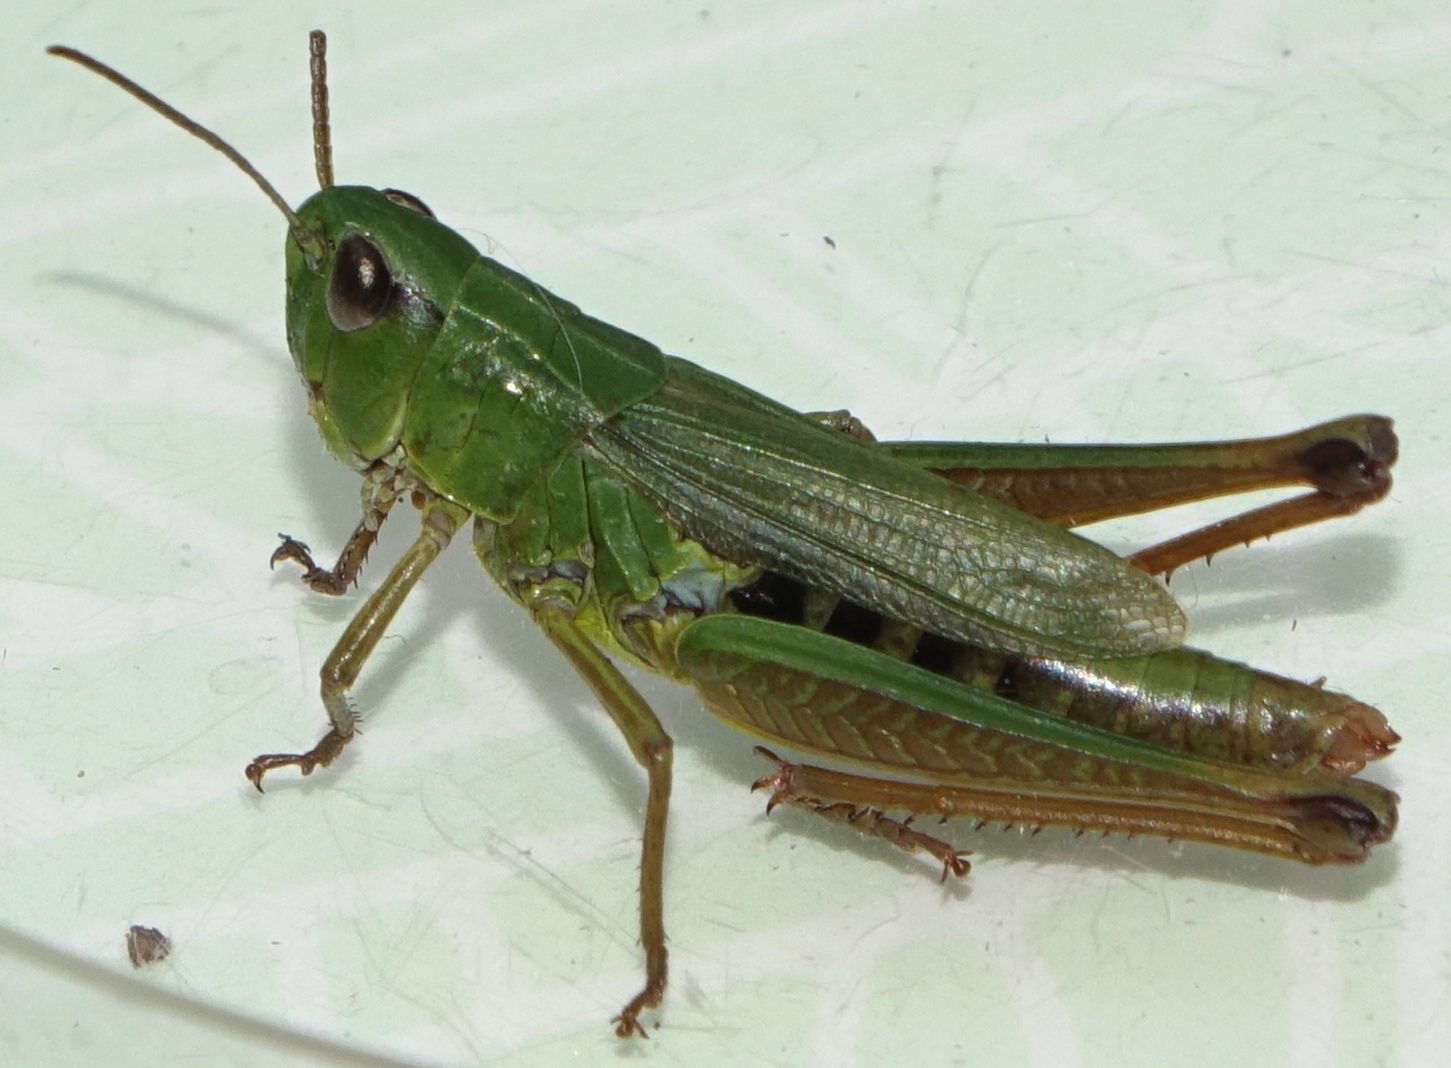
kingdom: Animalia
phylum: Arthropoda
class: Insecta
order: Orthoptera
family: Acrididae
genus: Pseudochorthippus
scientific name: Pseudochorthippus montanus
